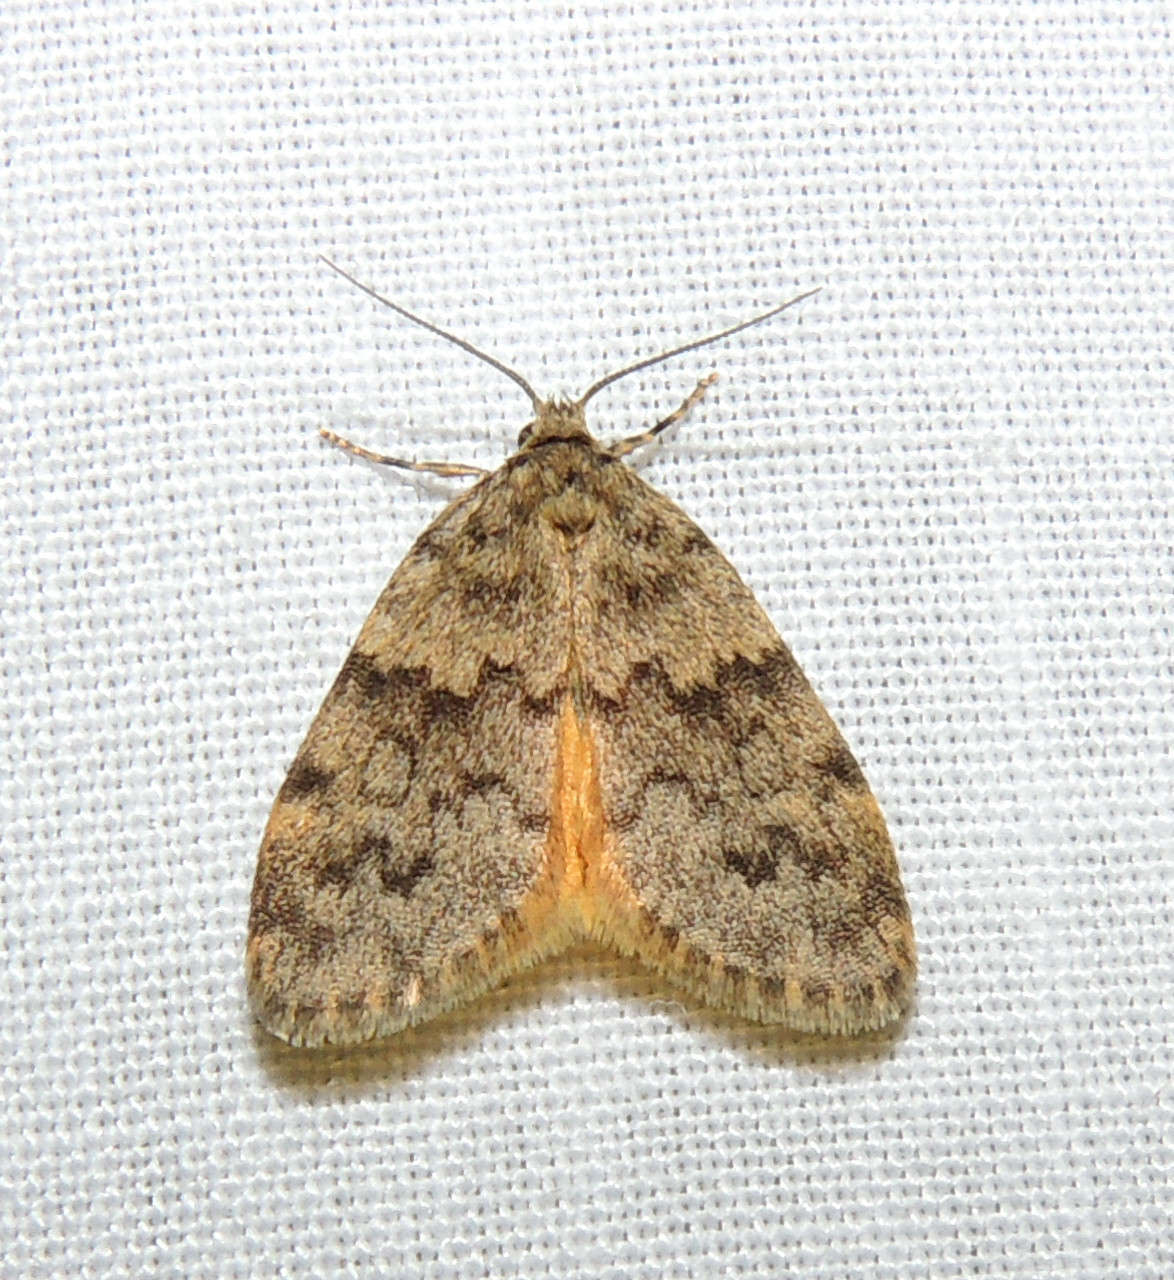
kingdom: Animalia
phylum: Arthropoda
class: Insecta
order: Lepidoptera
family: Erebidae
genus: Halone
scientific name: Halone consolatrix
